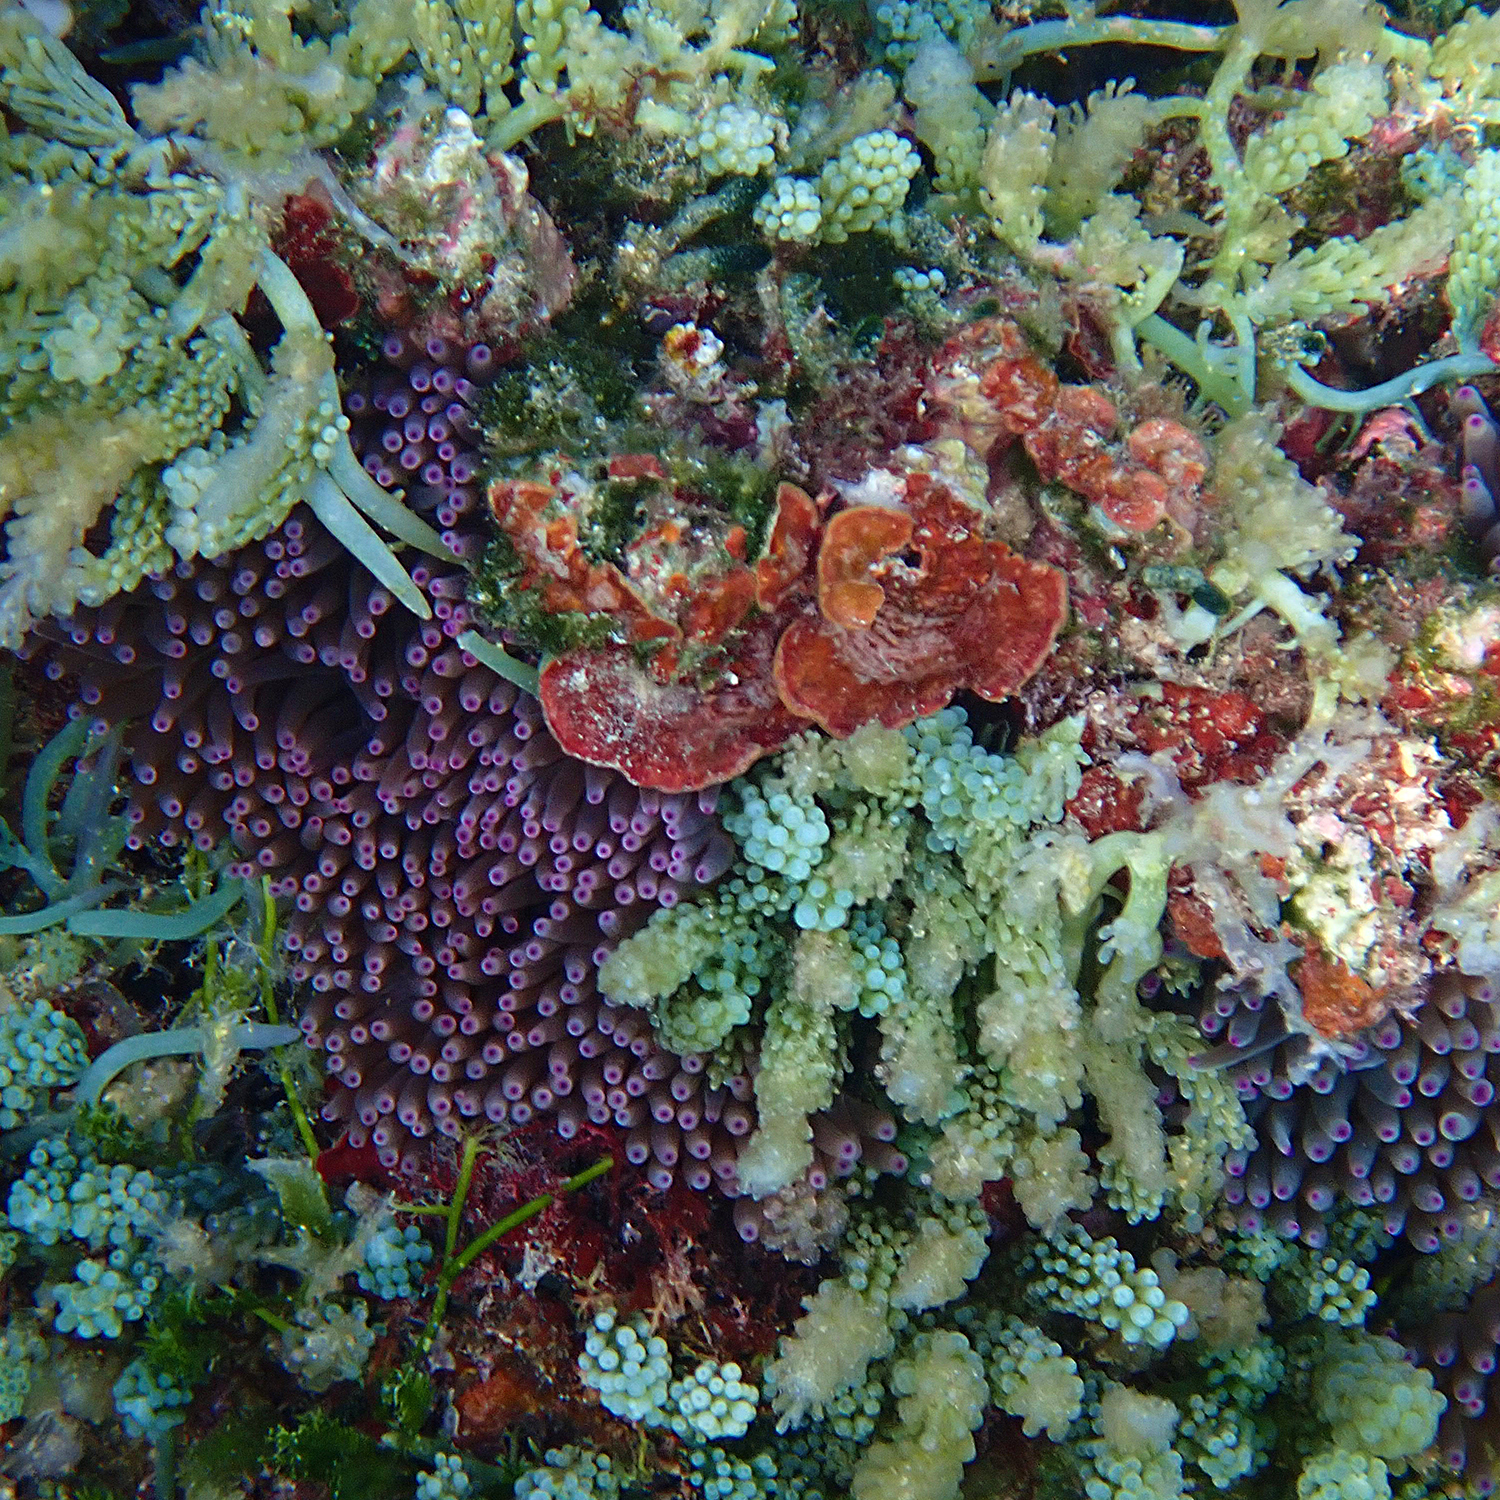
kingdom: Animalia
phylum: Cnidaria
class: Anthozoa
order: Actiniaria
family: Actiniidae
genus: Entacmaea
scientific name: Entacmaea quadricolor
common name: Bulb tentacle sea anemone
